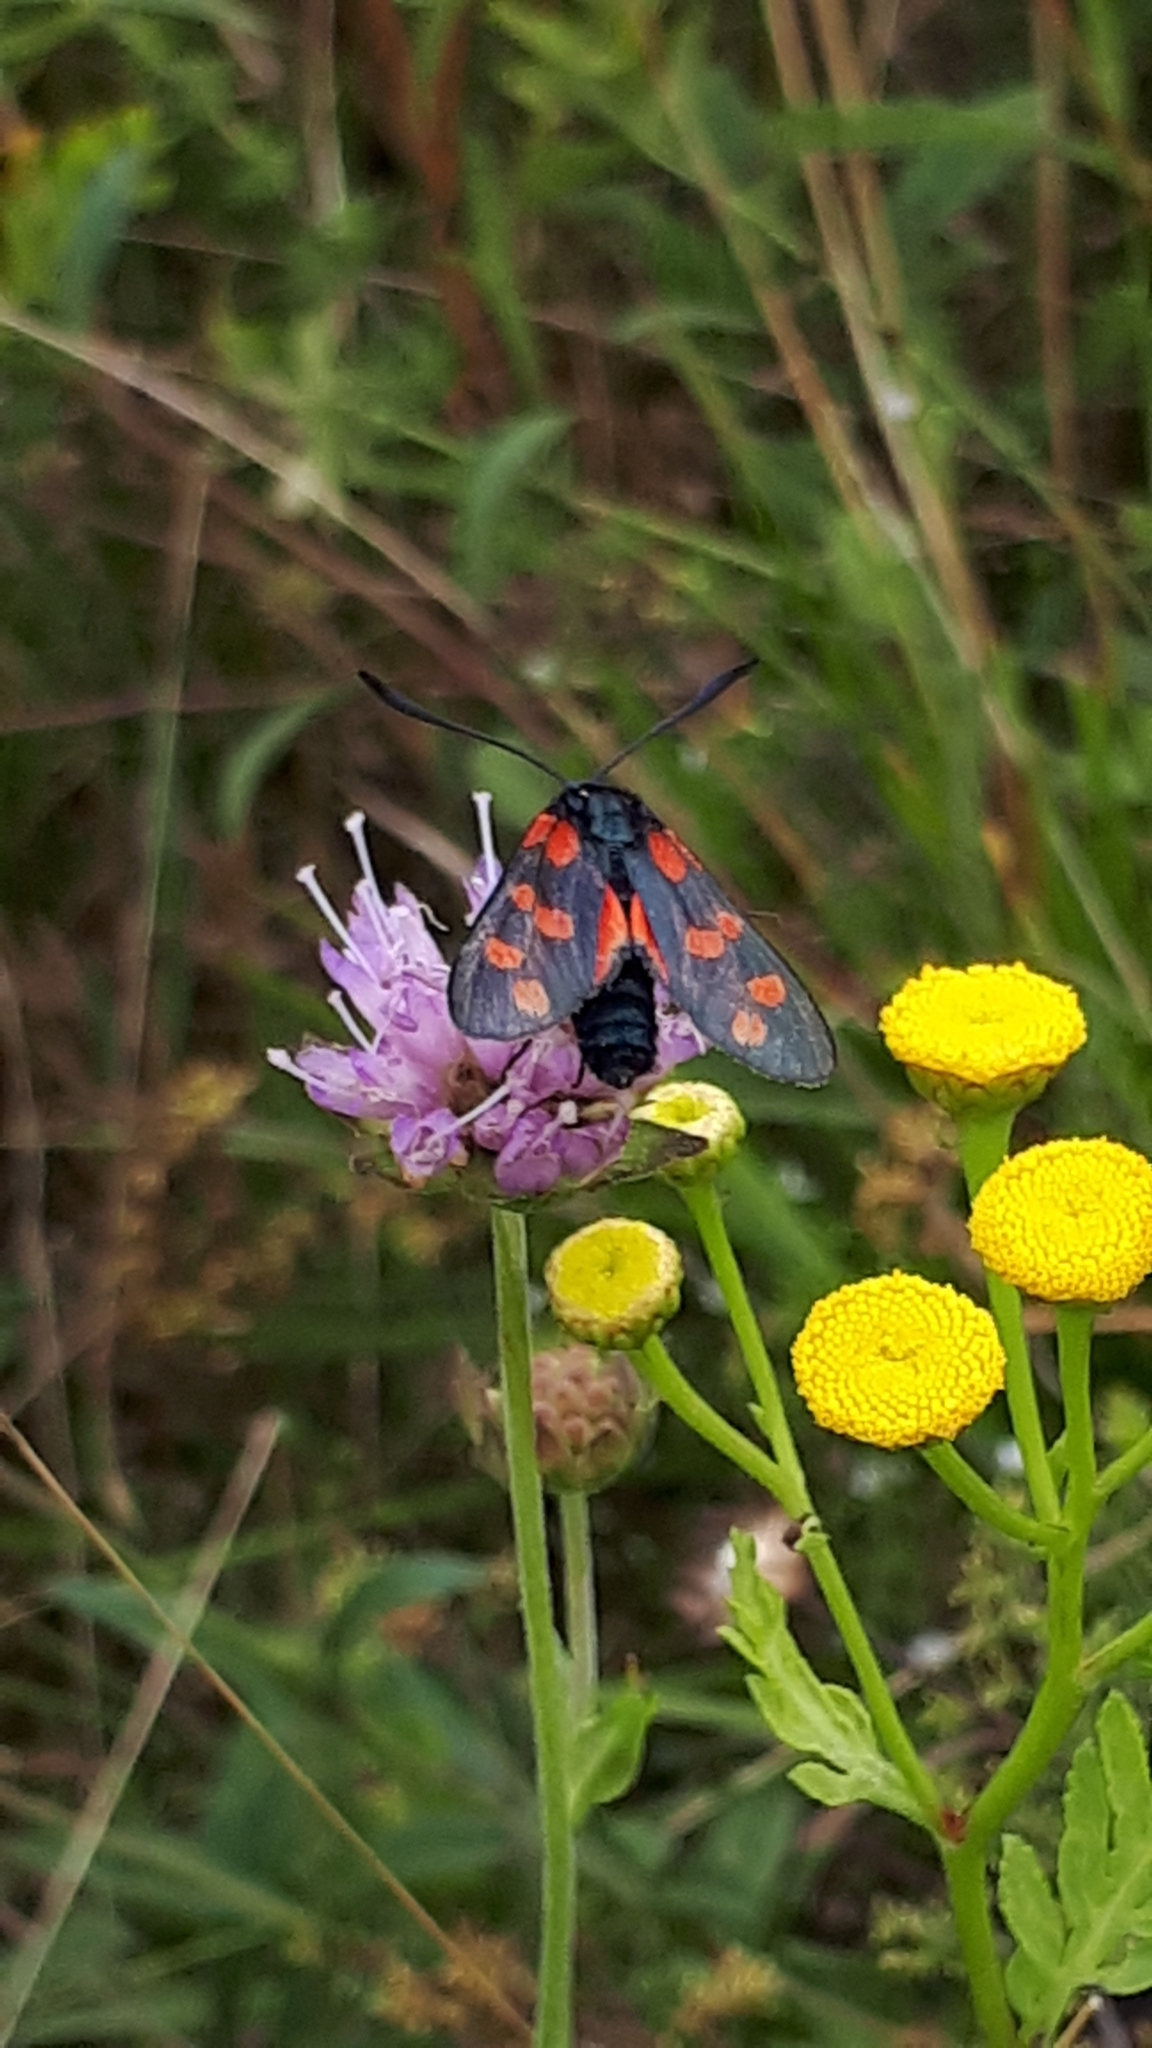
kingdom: Animalia
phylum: Arthropoda
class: Insecta
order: Lepidoptera
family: Zygaenidae
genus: Zygaena
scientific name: Zygaena filipendulae
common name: Six-spot burnet
